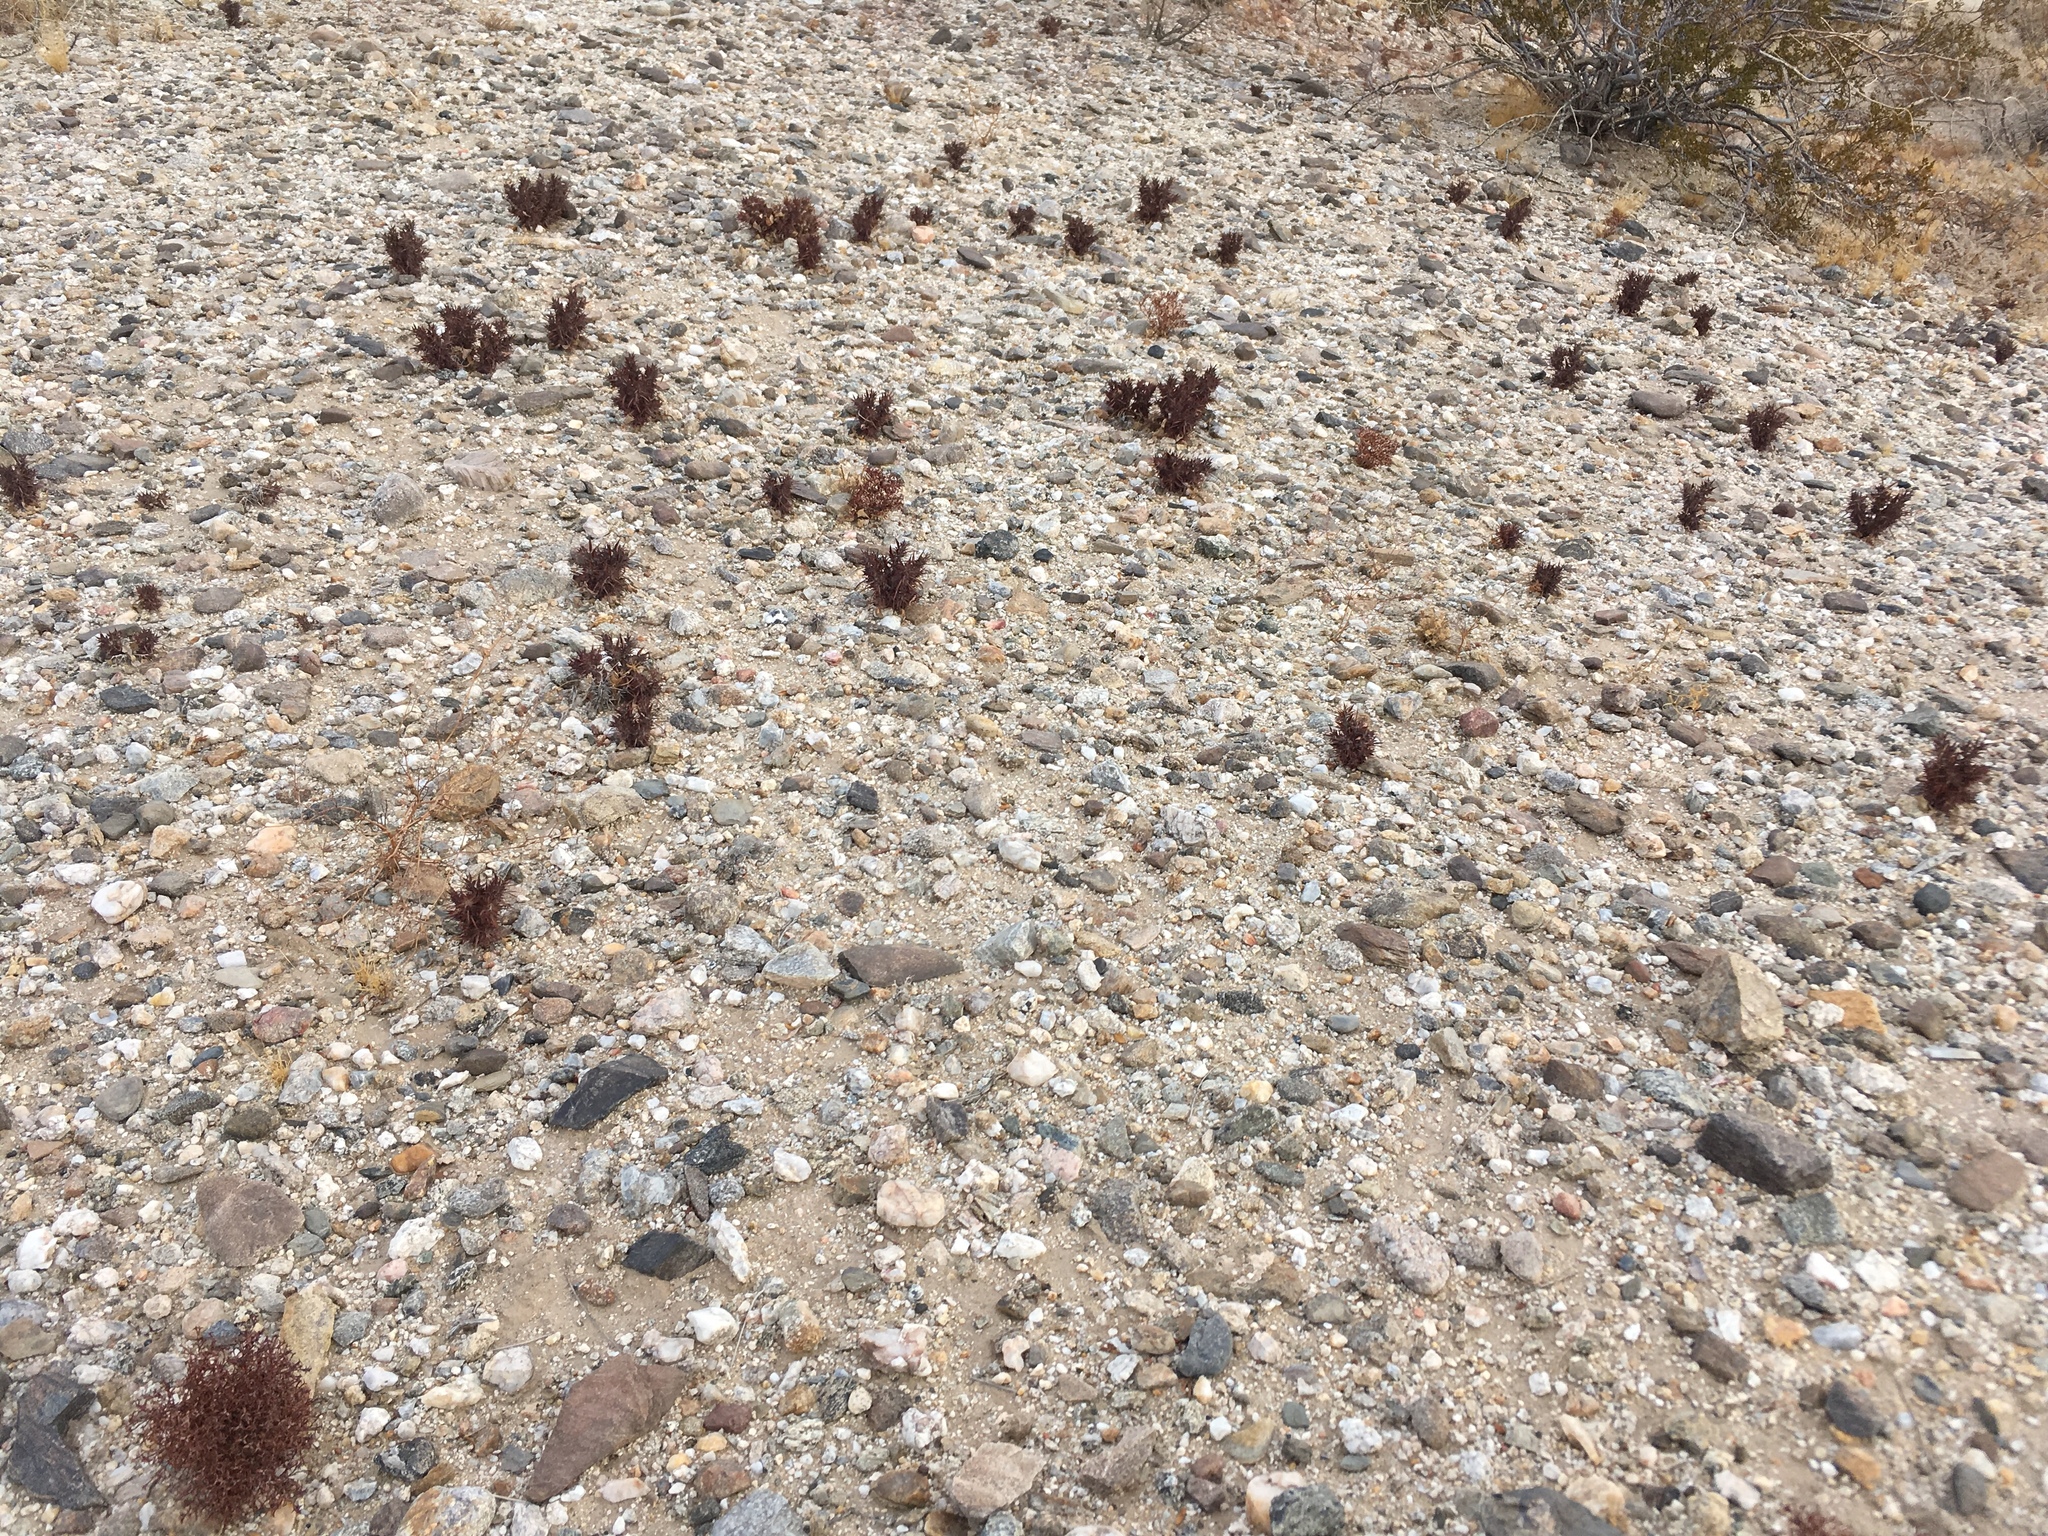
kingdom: Plantae
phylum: Tracheophyta
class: Magnoliopsida
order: Caryophyllales
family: Polygonaceae
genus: Chorizanthe
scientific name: Chorizanthe rigida
